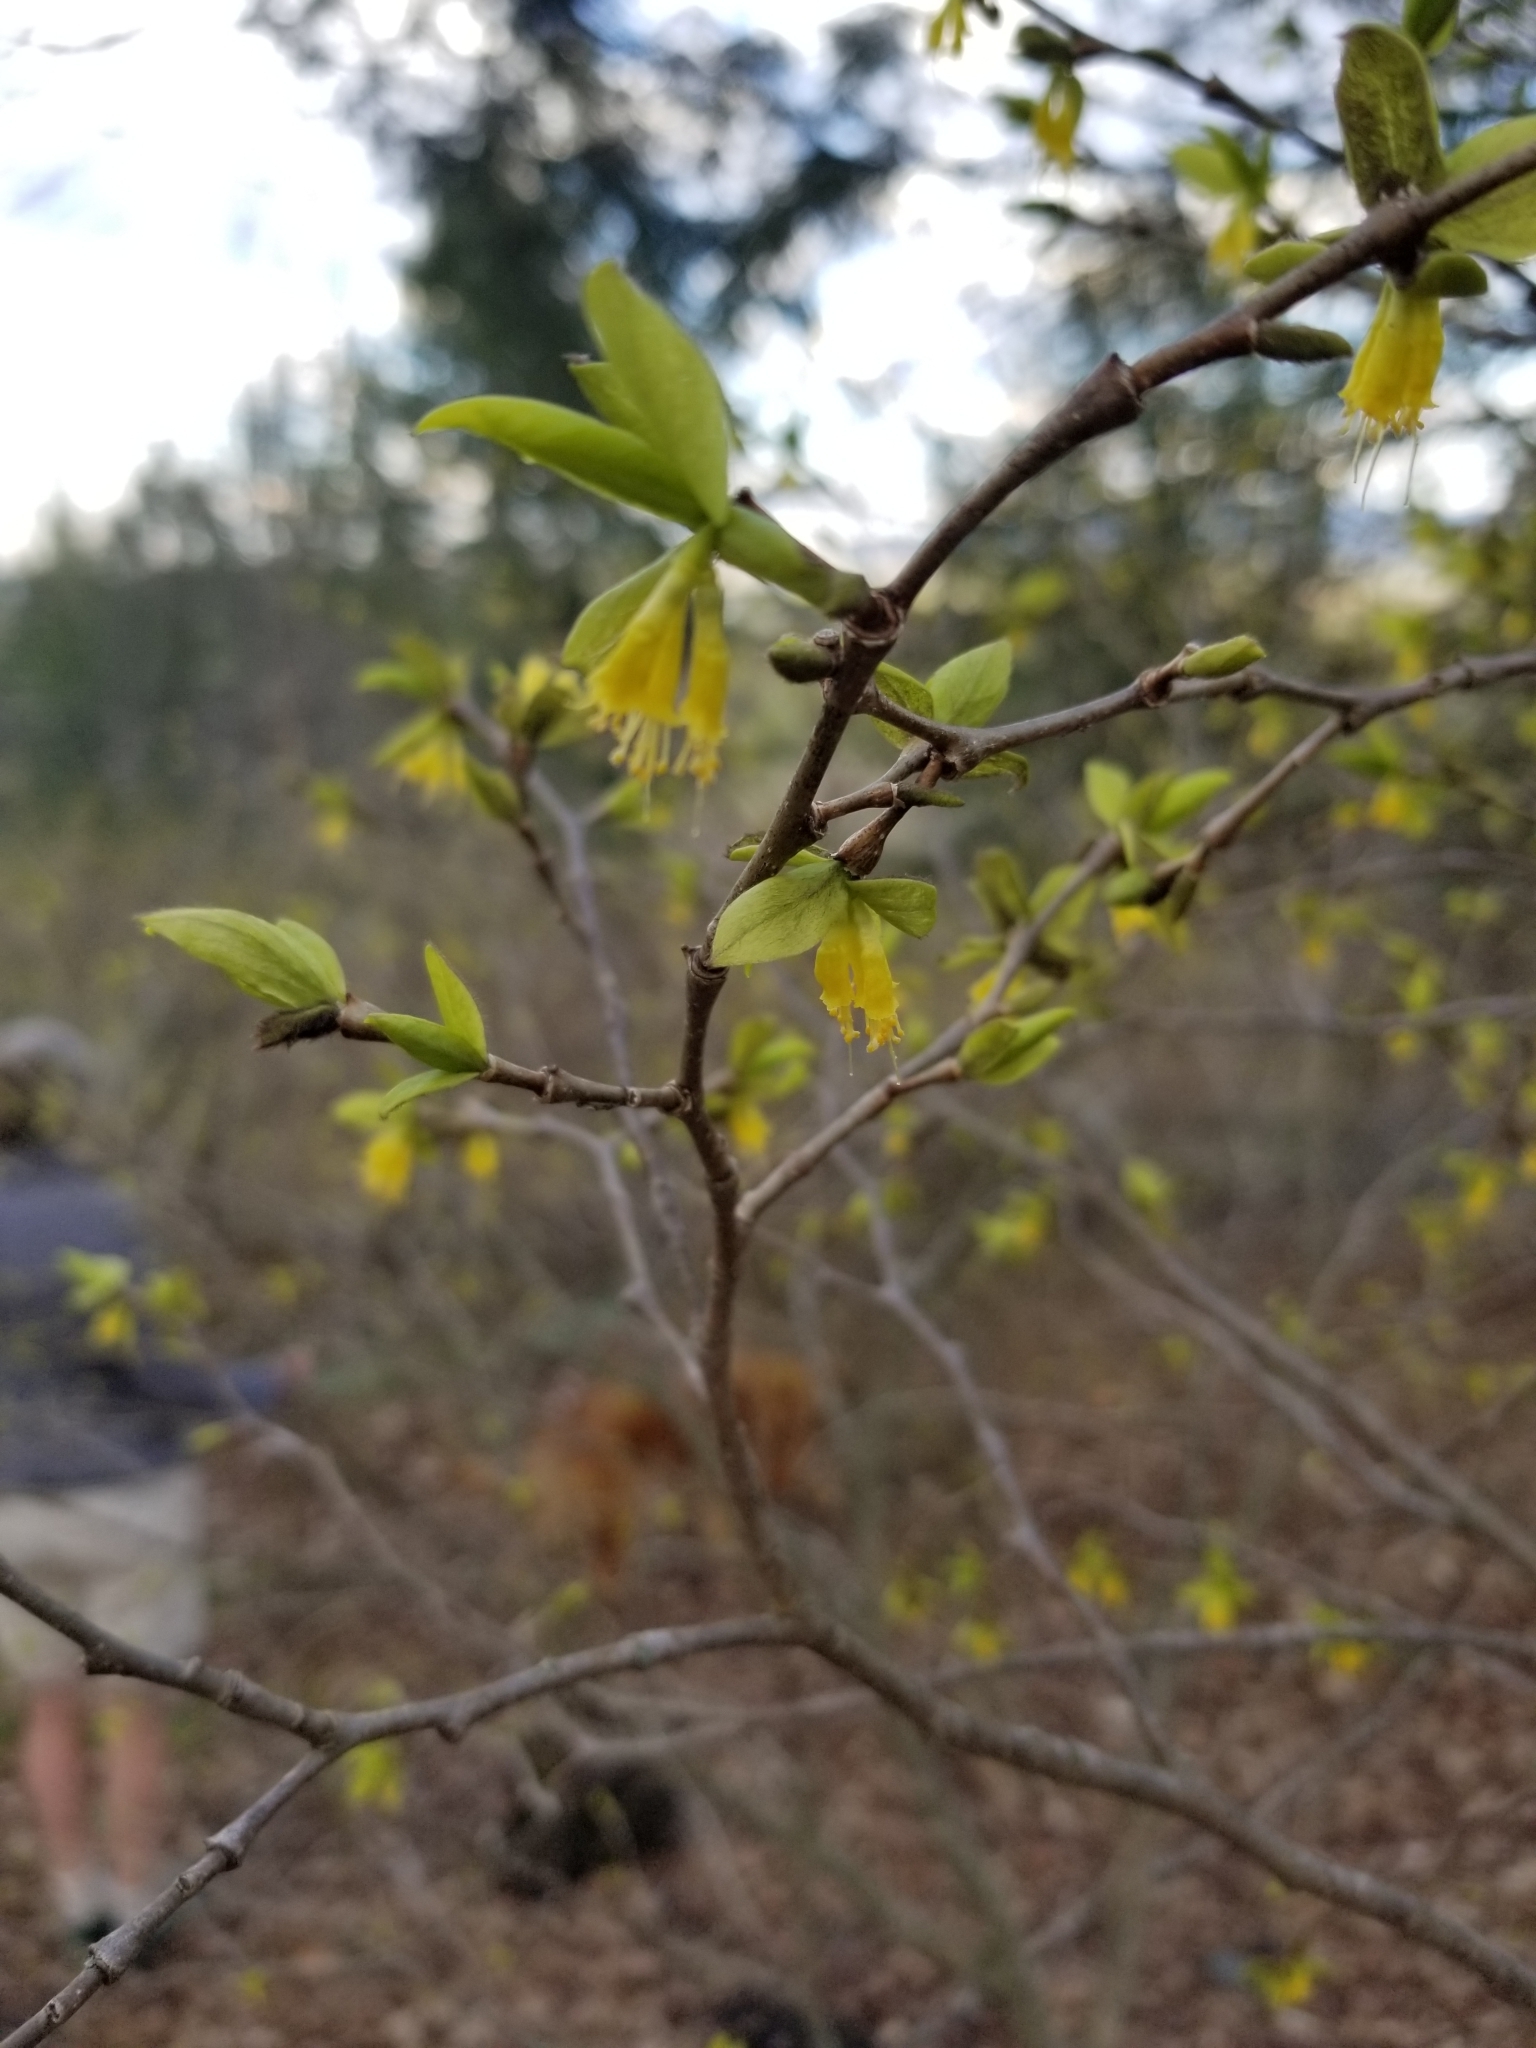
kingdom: Plantae
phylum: Tracheophyta
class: Magnoliopsida
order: Malvales
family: Thymelaeaceae
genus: Dirca
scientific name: Dirca palustris
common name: Leatherwood
